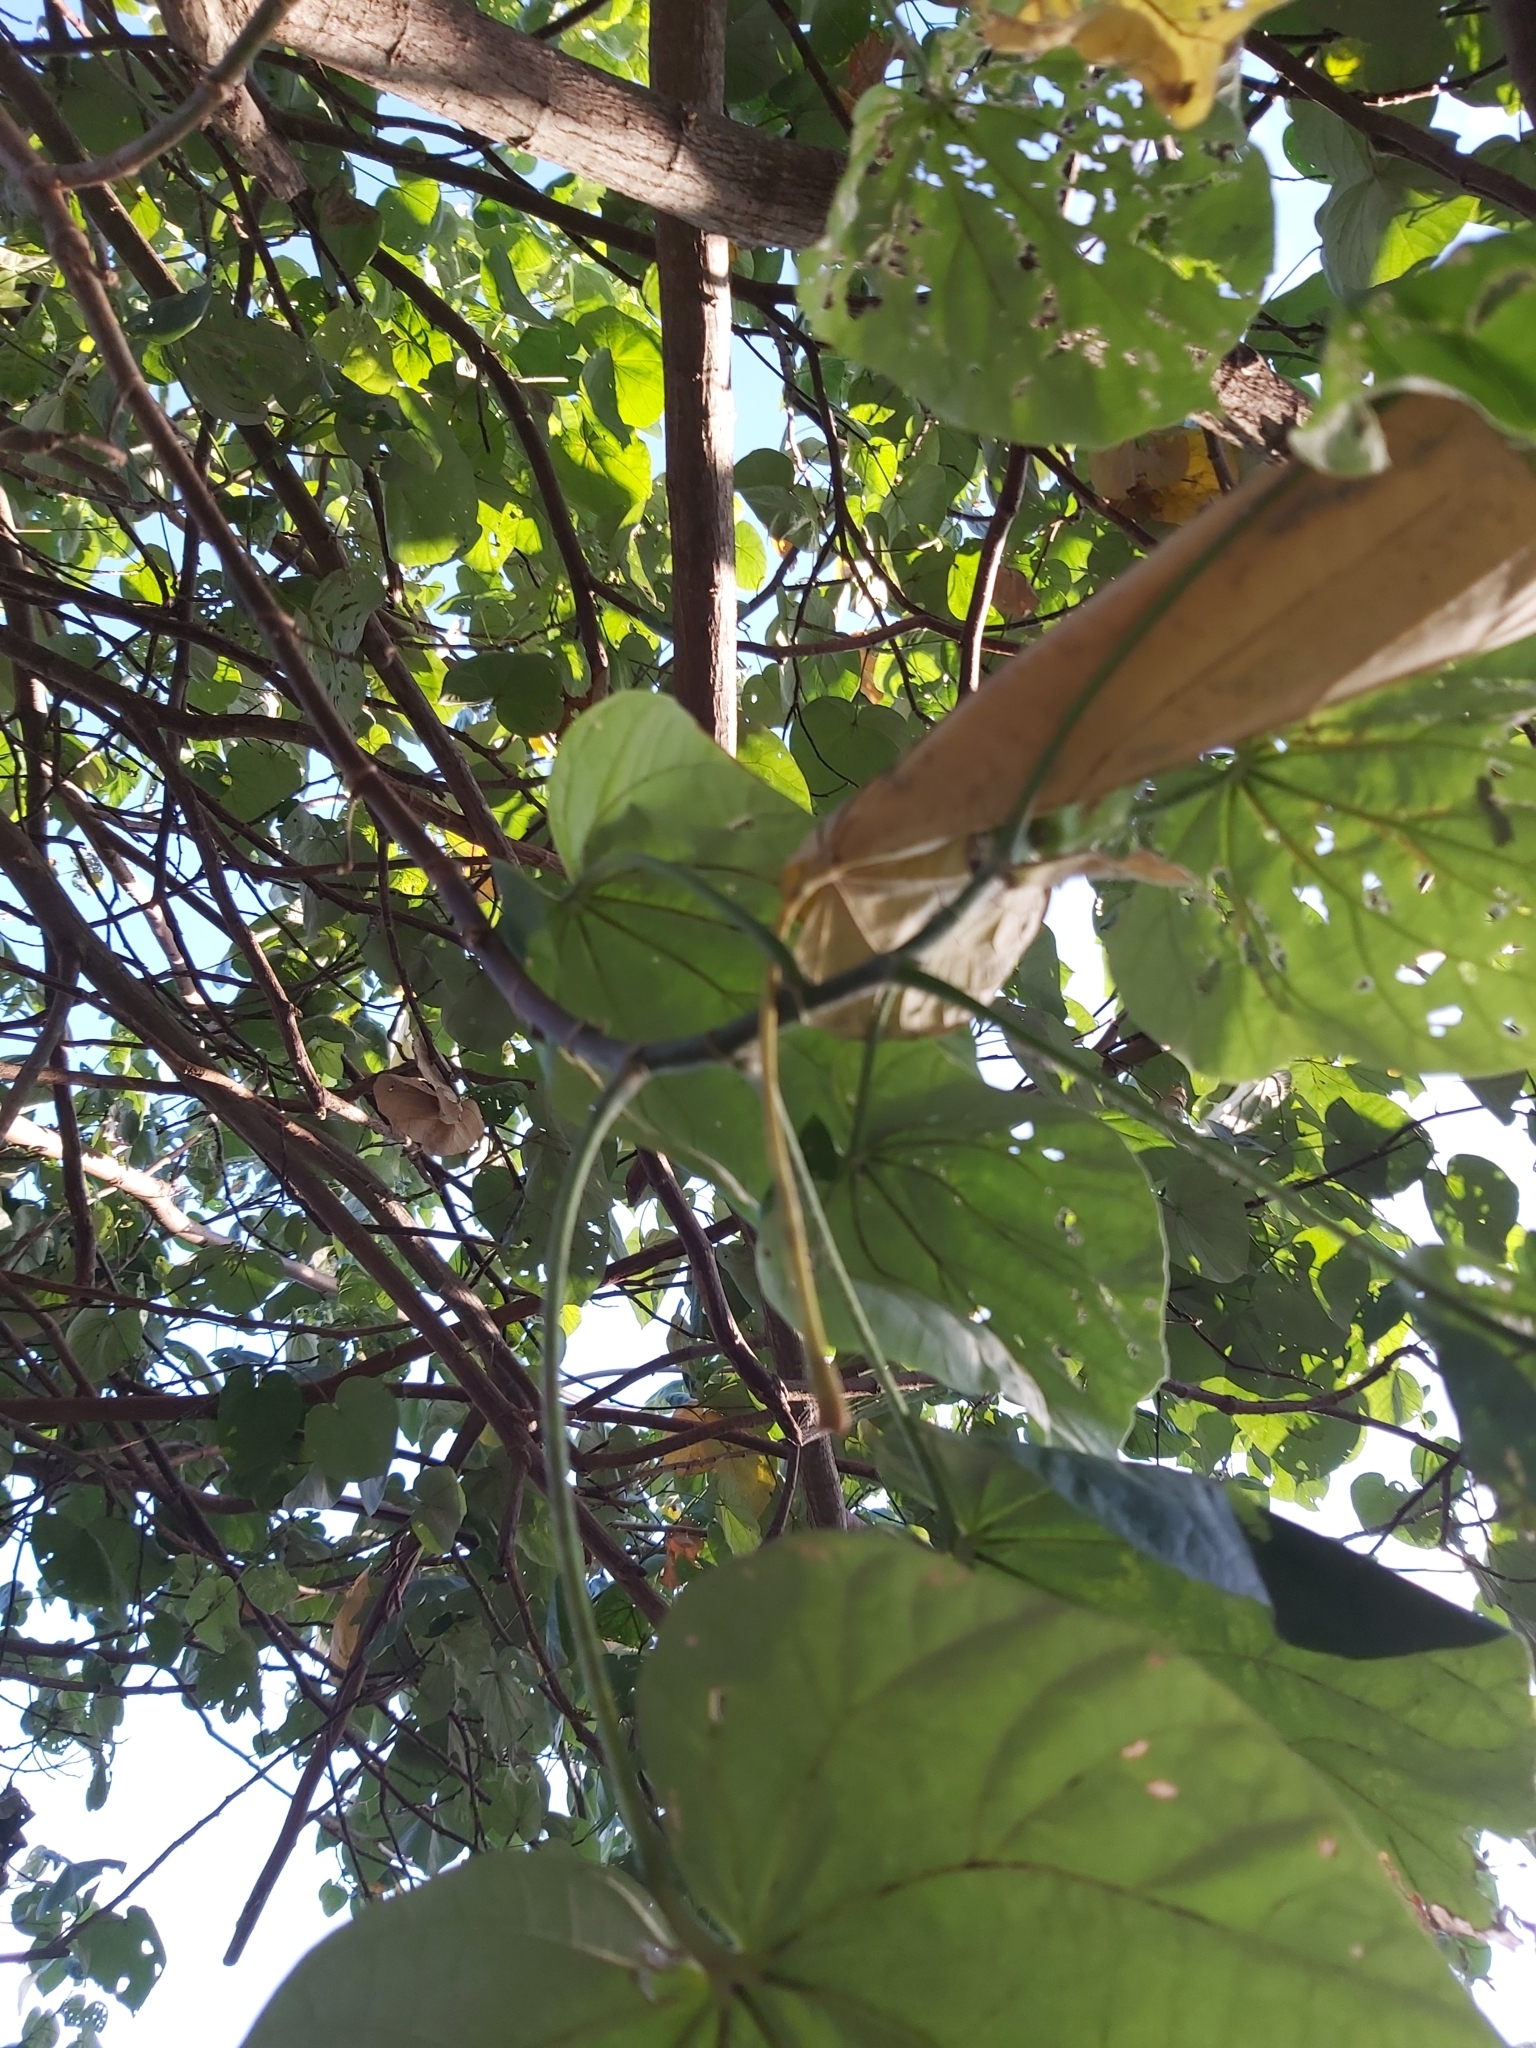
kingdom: Plantae
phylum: Tracheophyta
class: Magnoliopsida
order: Malvales
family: Malvaceae
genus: Talipariti
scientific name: Talipariti tiliaceum
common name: Sea hibiscus
